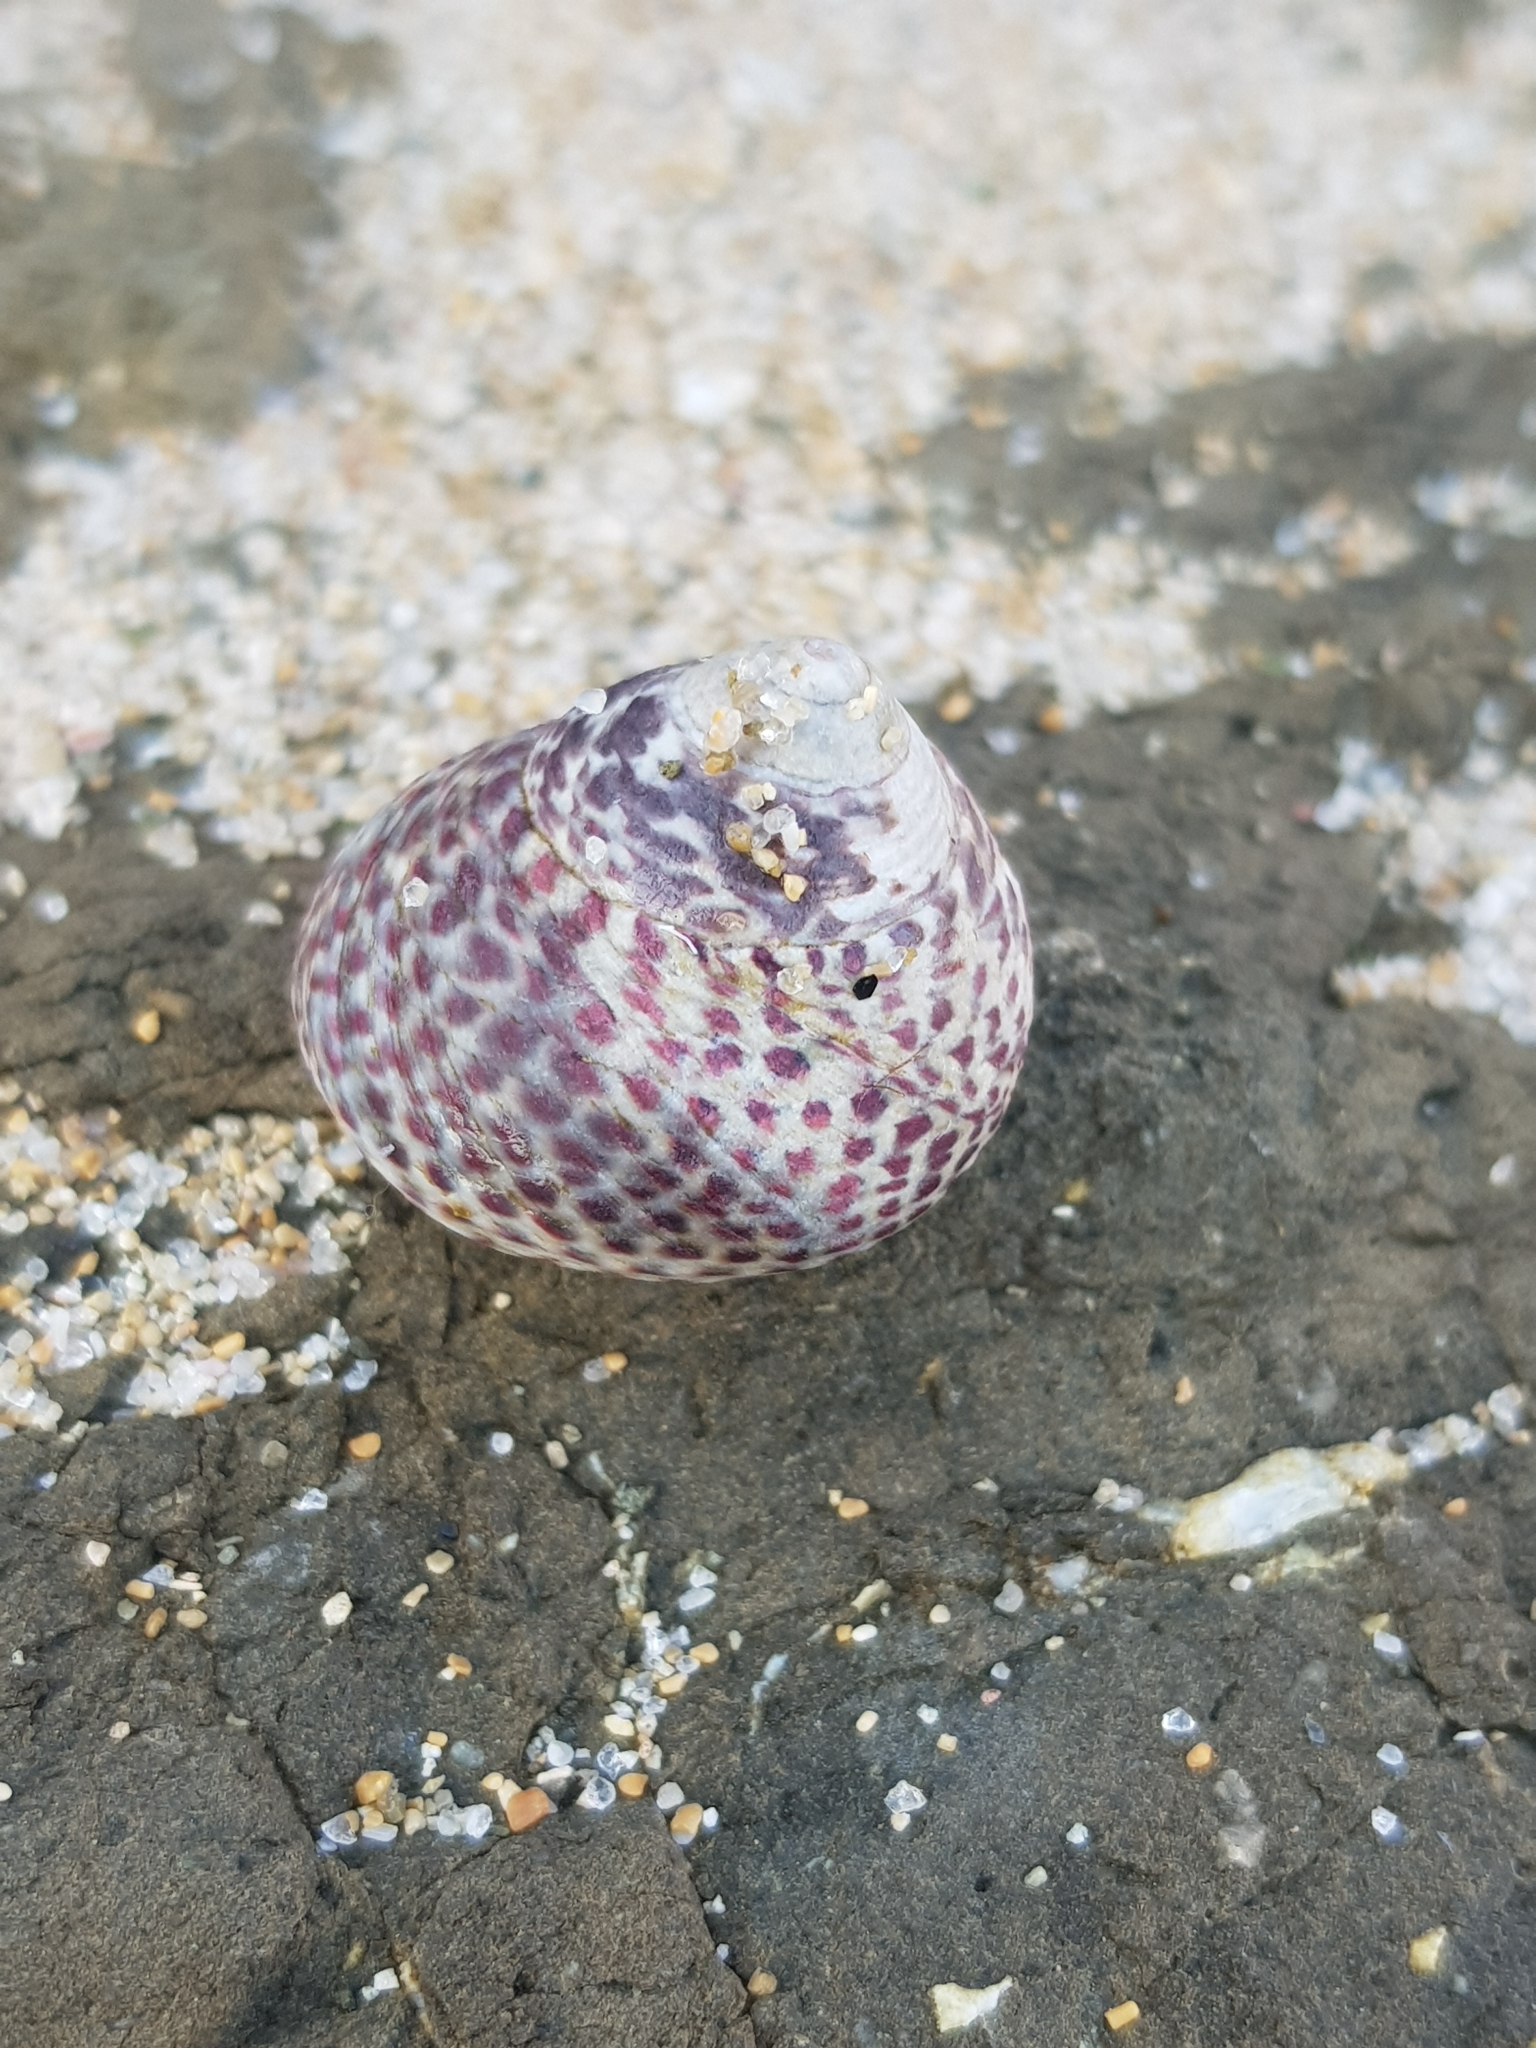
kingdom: Animalia
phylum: Mollusca
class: Gastropoda
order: Trochida
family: Trochidae
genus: Phorcus
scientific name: Phorcus turbinatus
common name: Turbinate monodont
